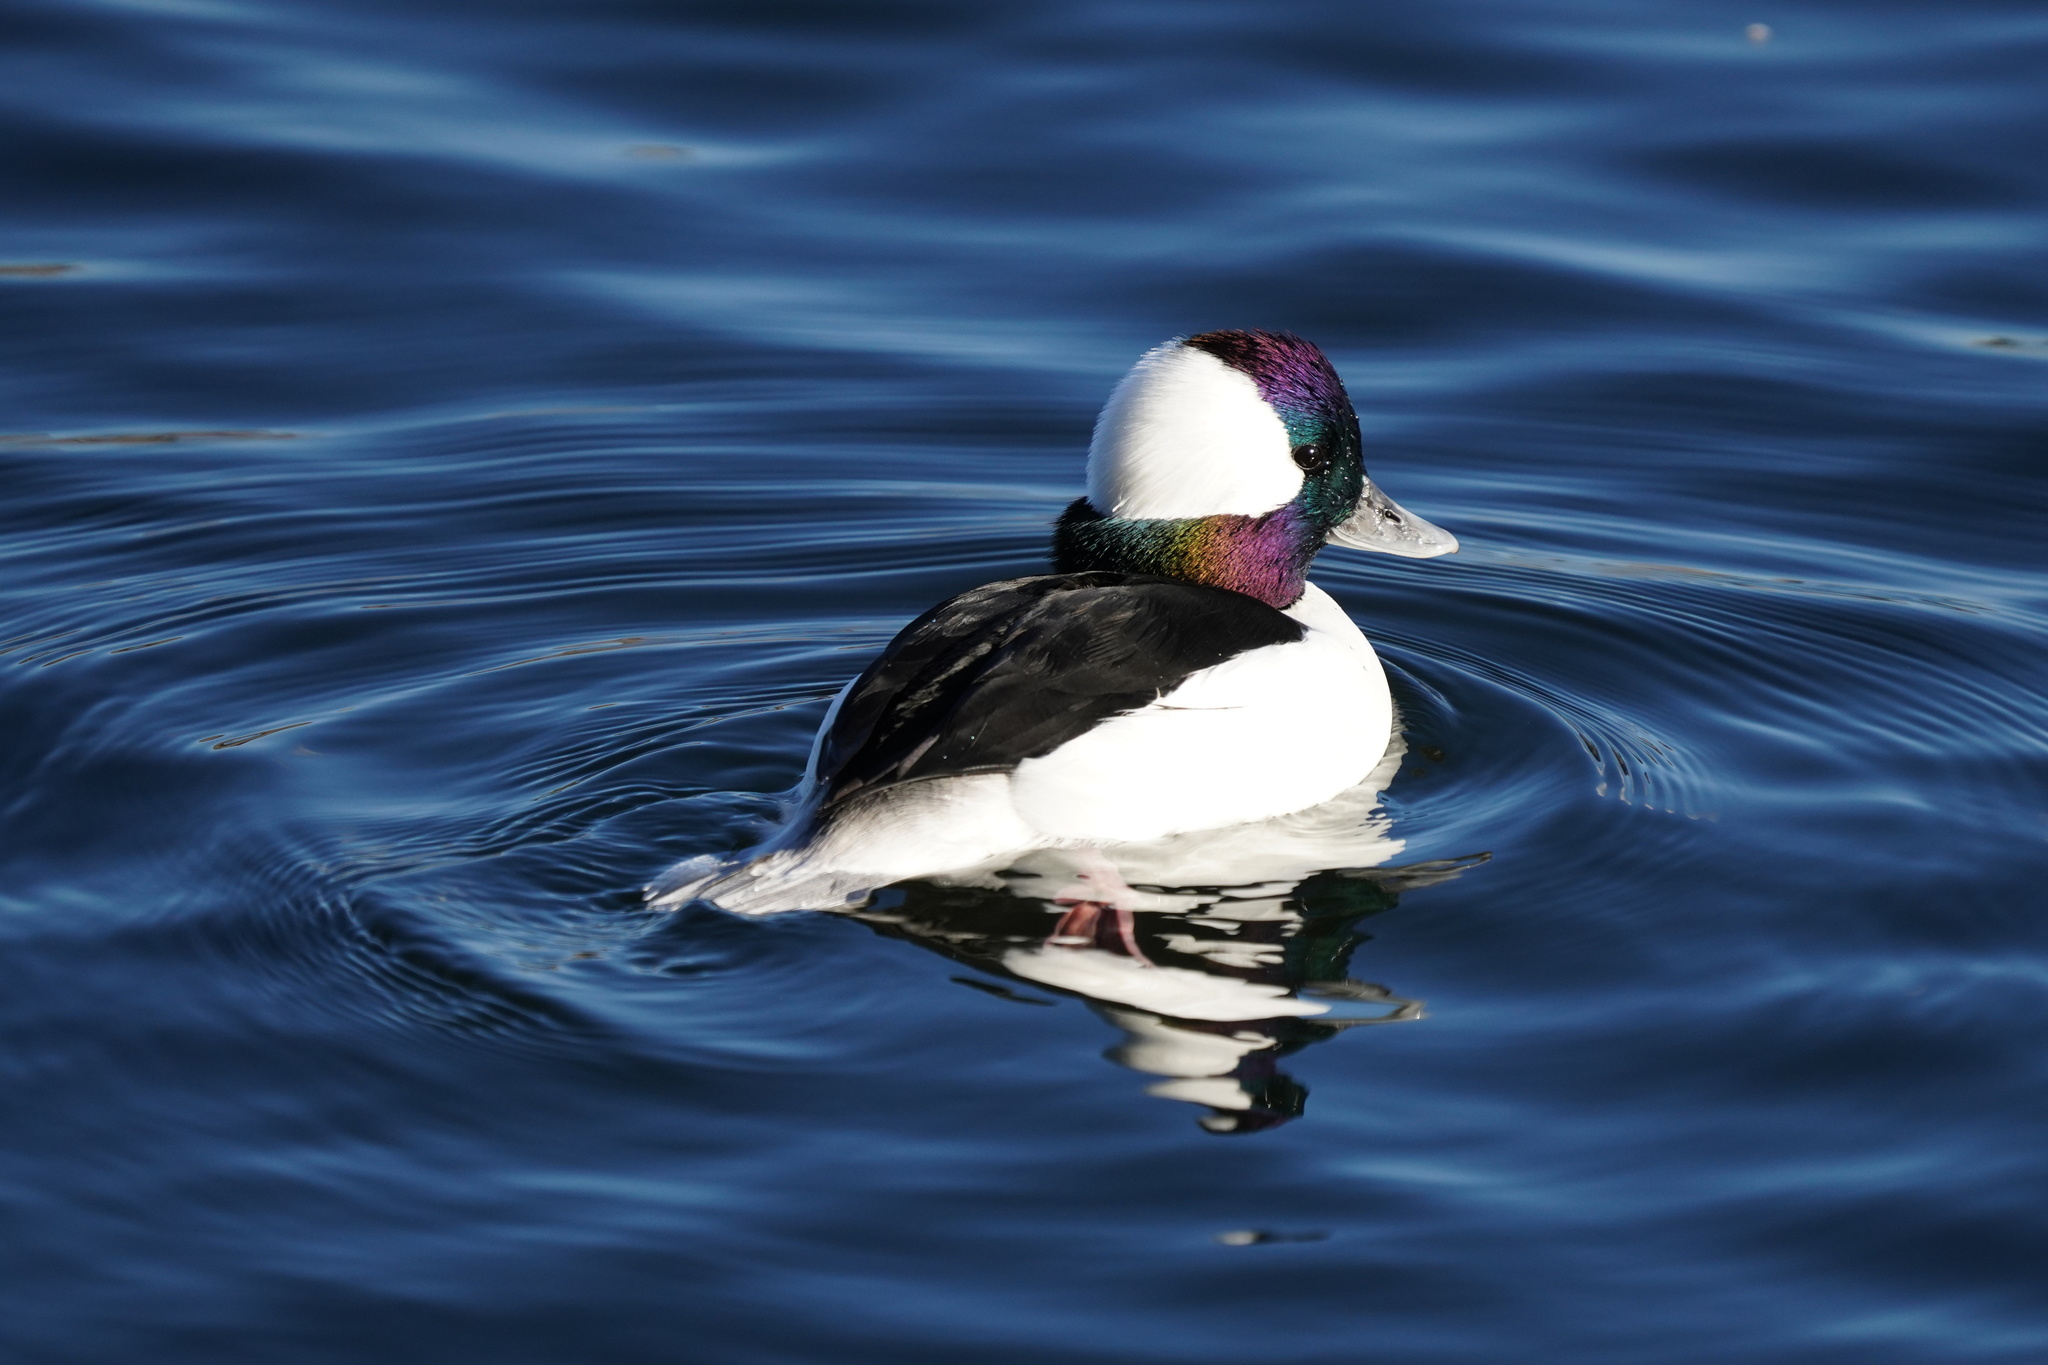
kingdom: Animalia
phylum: Chordata
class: Aves
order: Anseriformes
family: Anatidae
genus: Bucephala
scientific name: Bucephala albeola
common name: Bufflehead
